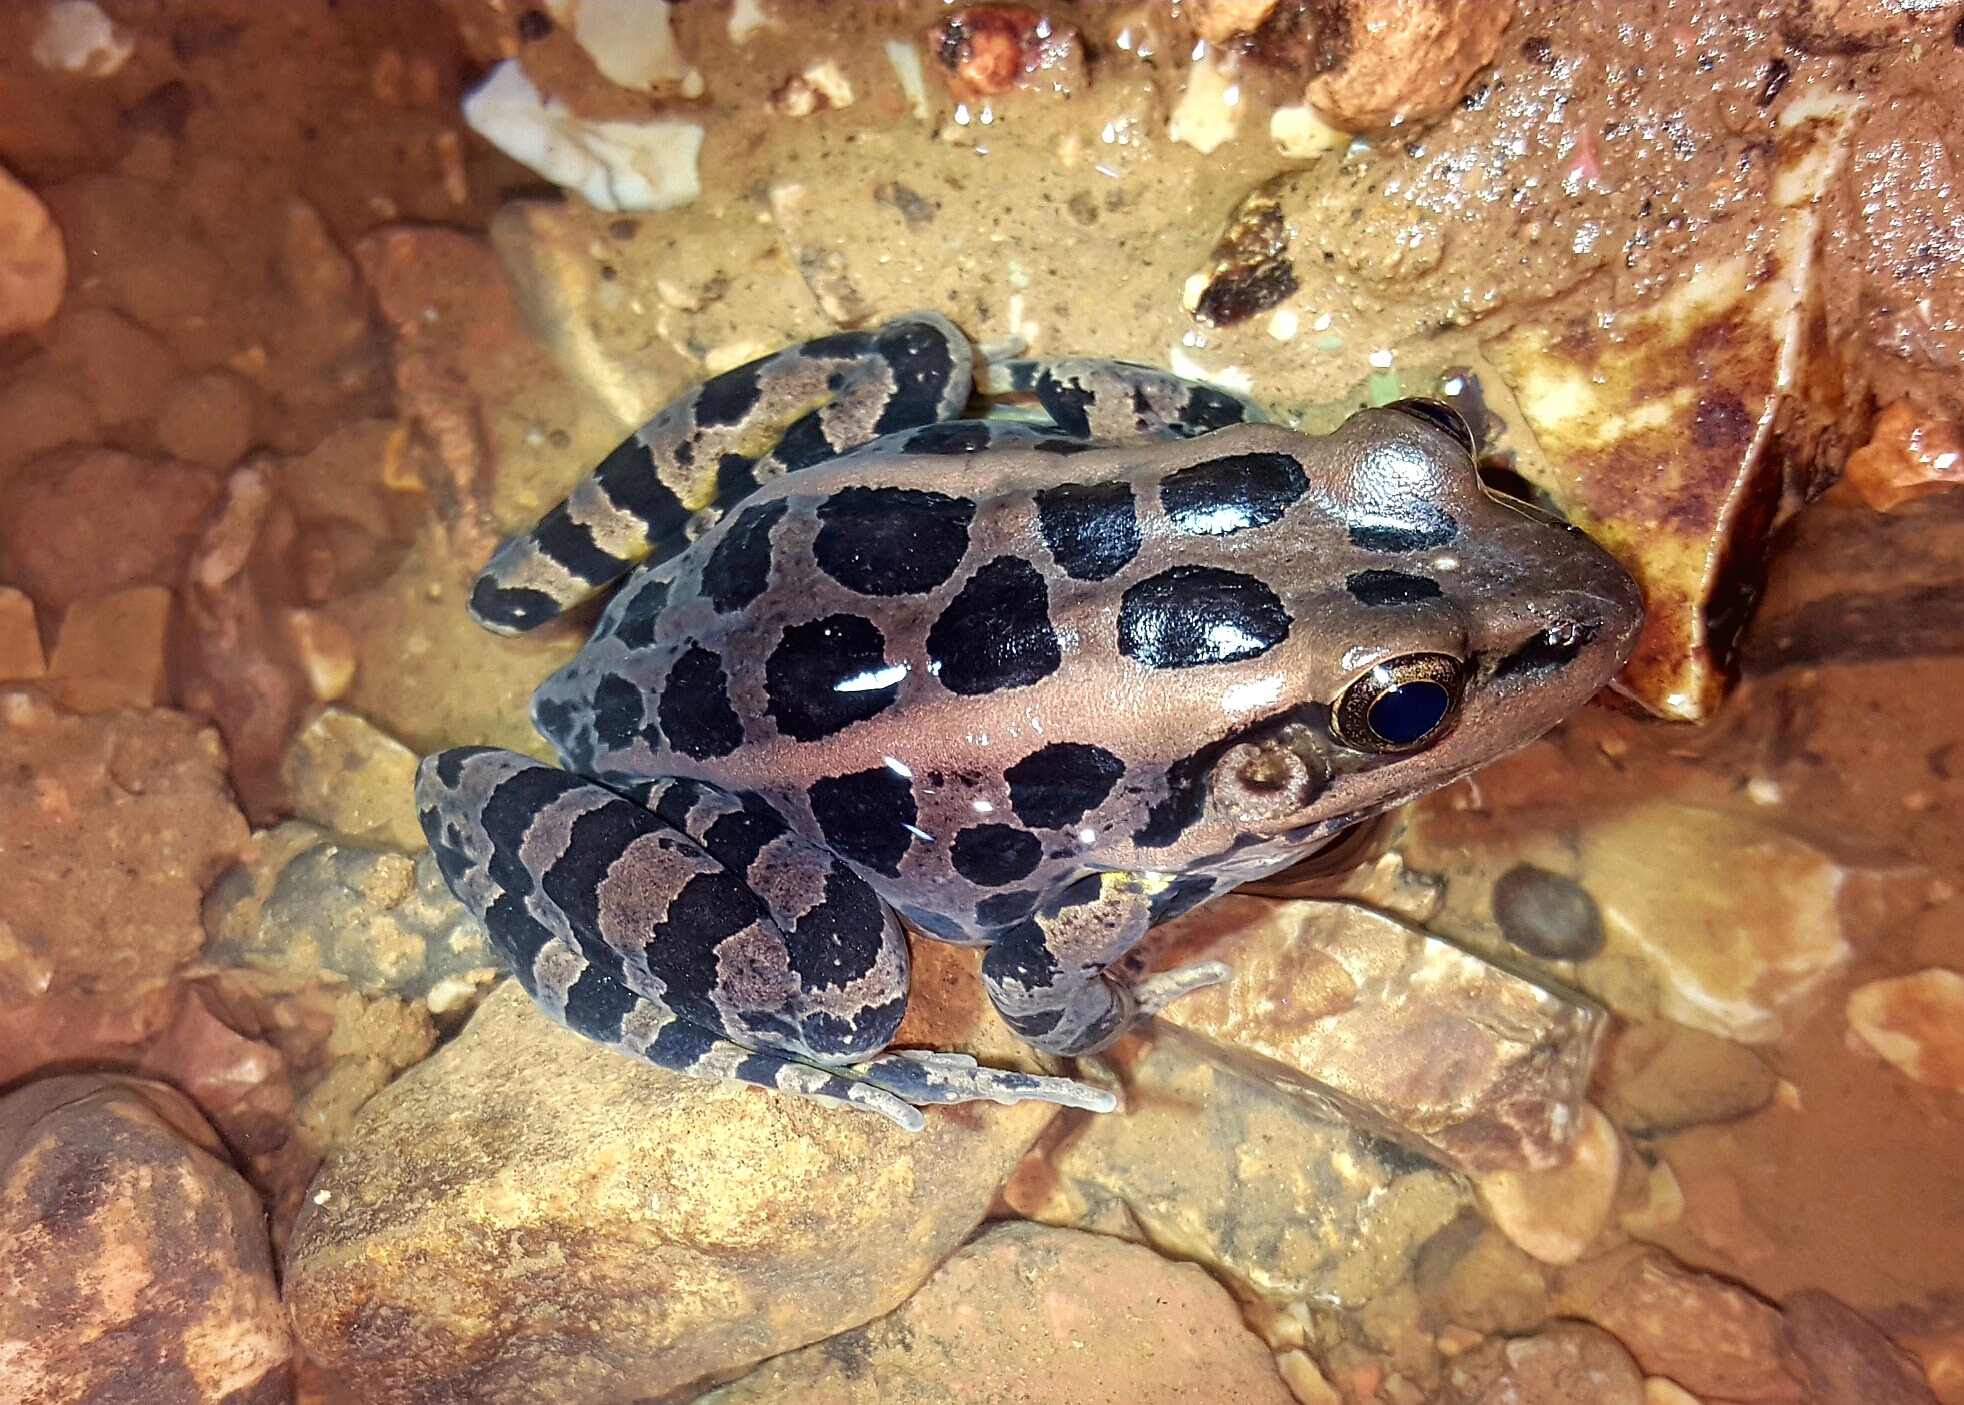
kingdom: Animalia
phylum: Chordata
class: Amphibia
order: Anura
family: Ranidae
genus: Lithobates
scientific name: Lithobates palustris
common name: Pickerel frog
